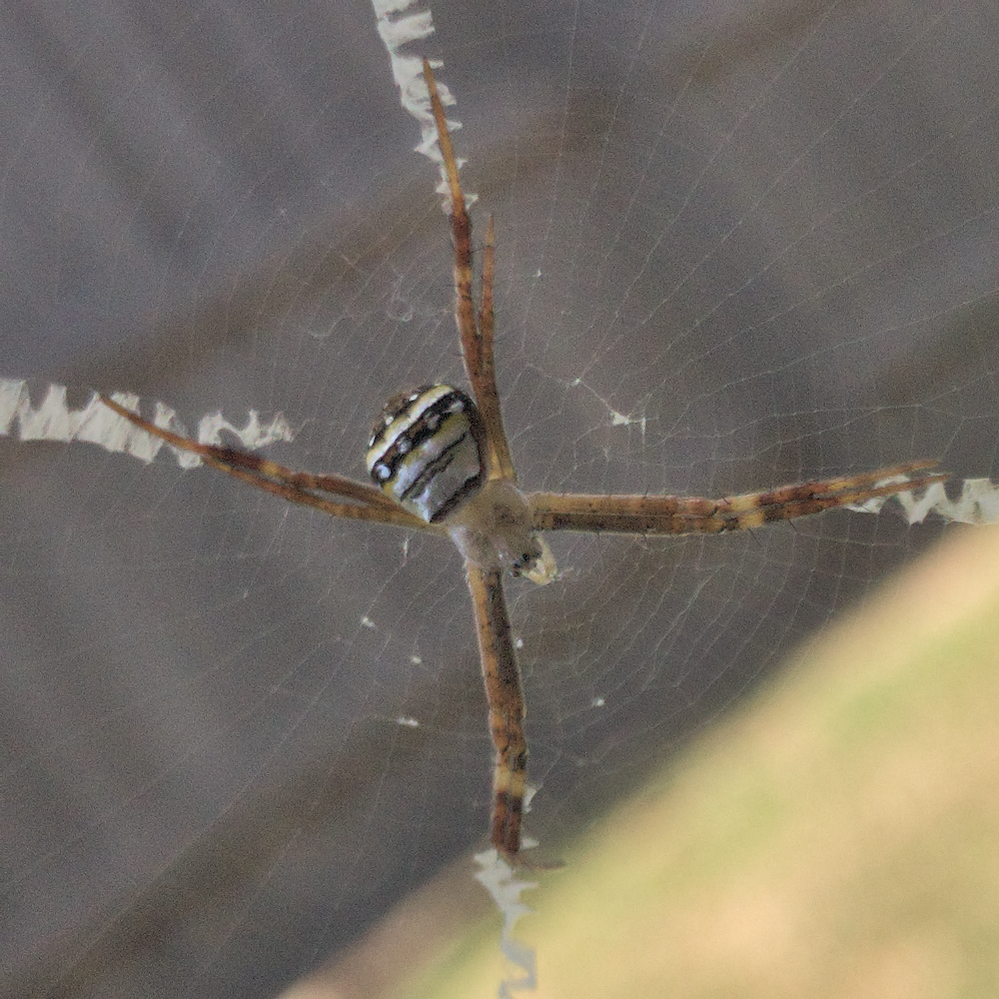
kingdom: Animalia
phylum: Arthropoda
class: Arachnida
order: Araneae
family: Araneidae
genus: Argiope
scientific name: Argiope keyserlingi
